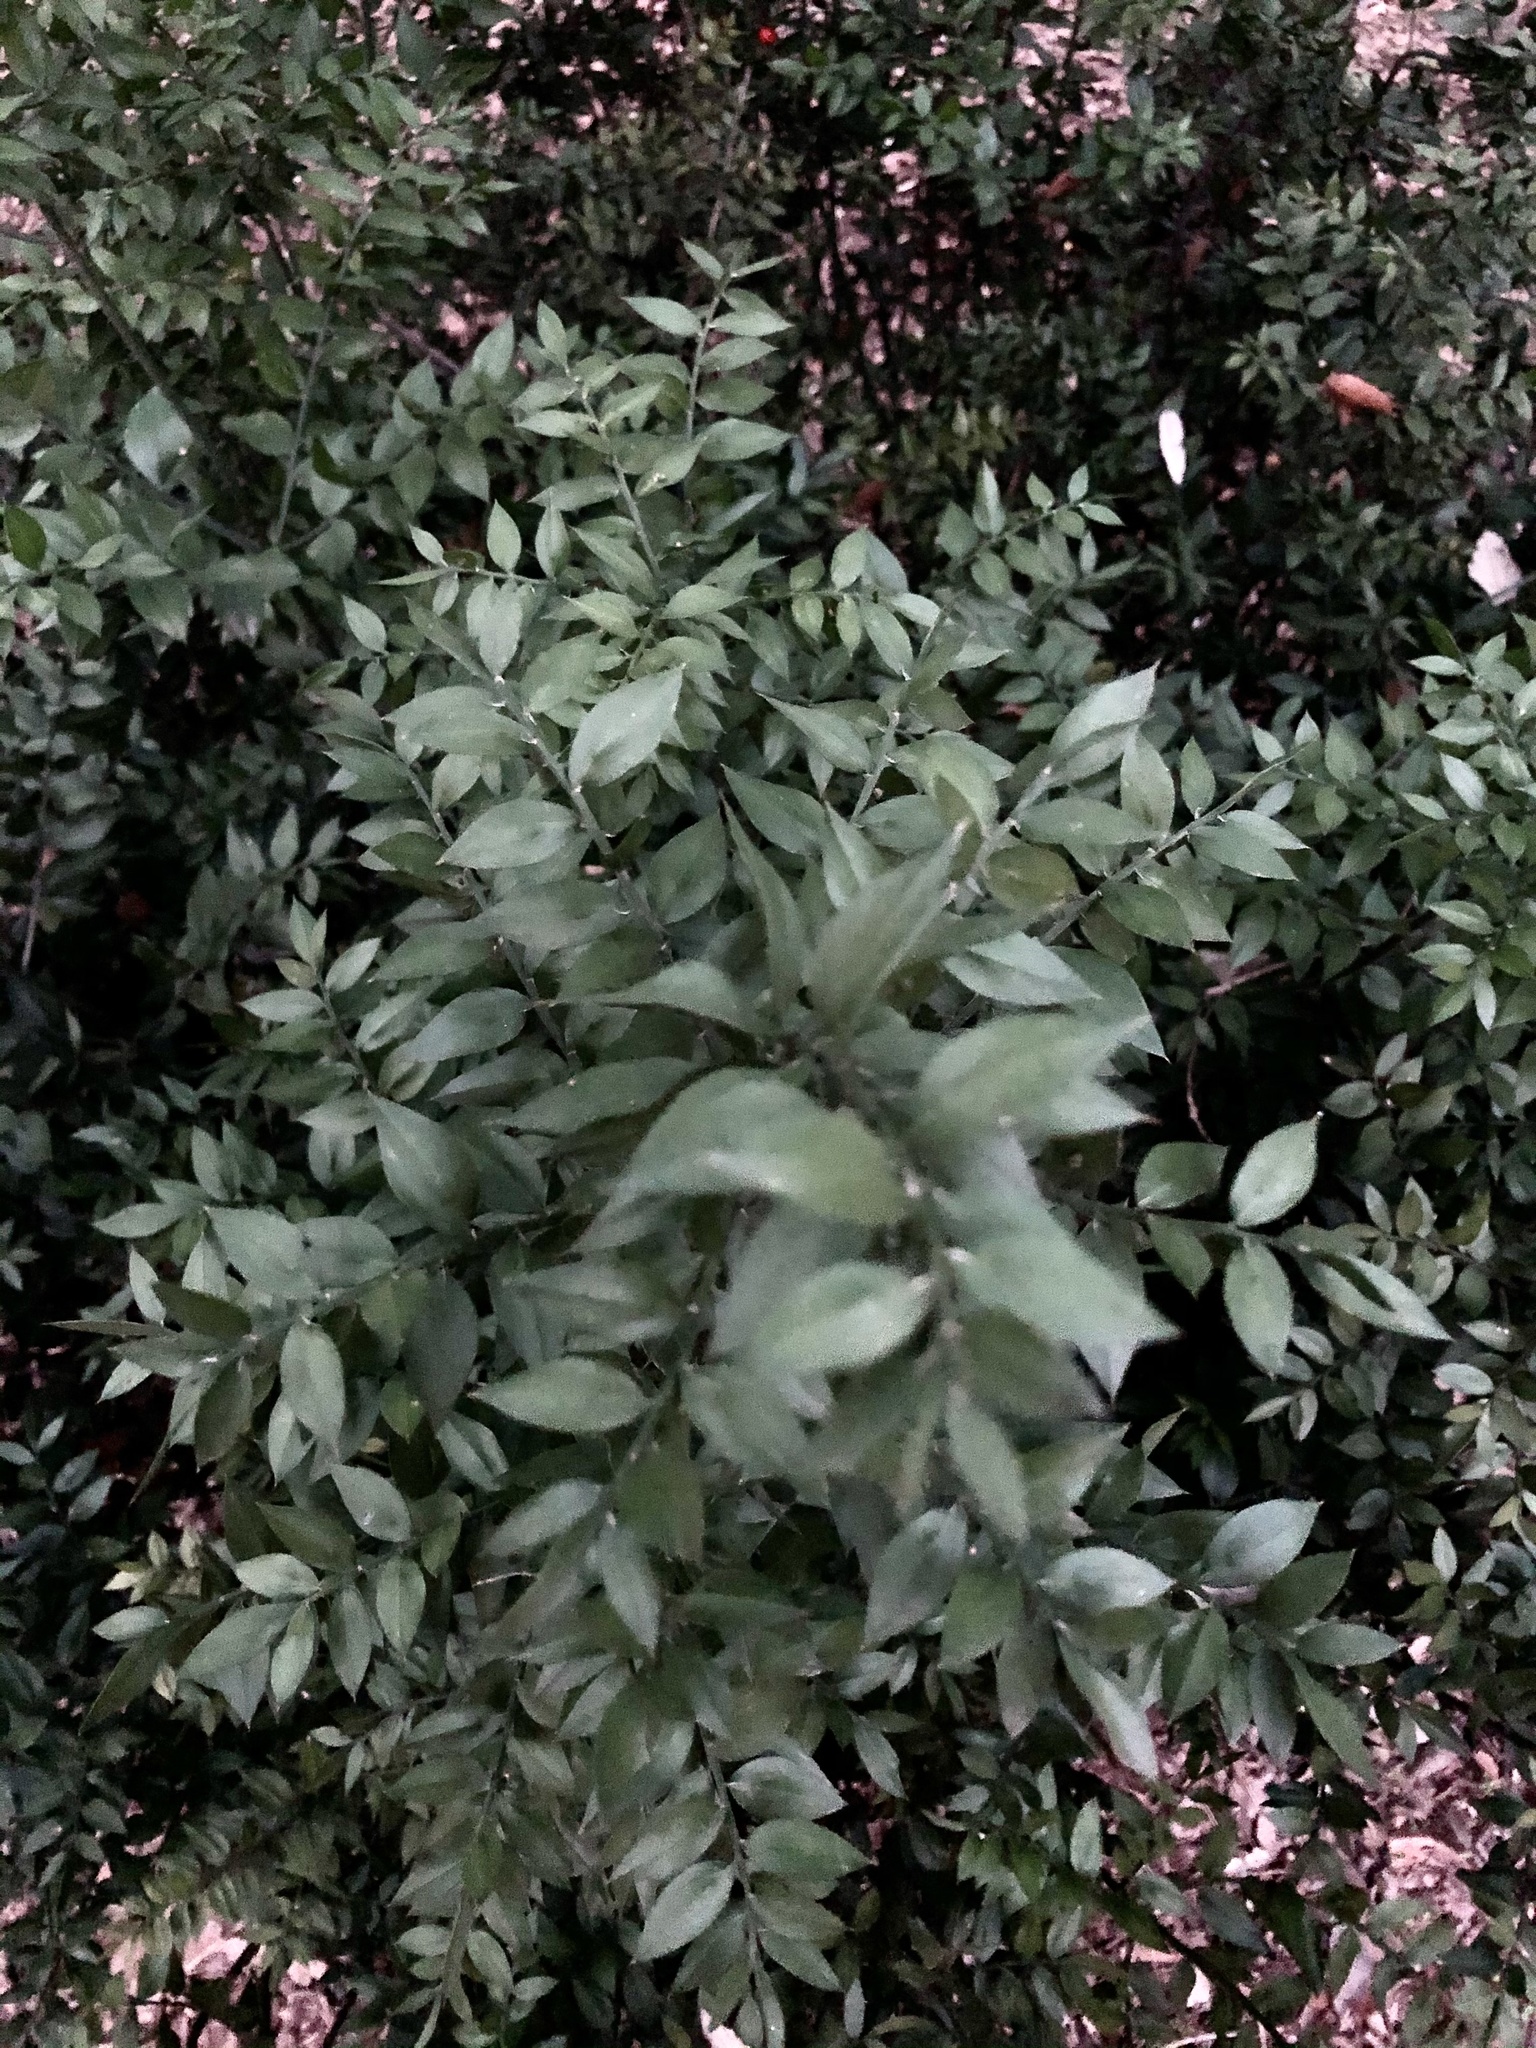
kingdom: Plantae
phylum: Tracheophyta
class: Liliopsida
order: Asparagales
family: Asparagaceae
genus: Ruscus
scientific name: Ruscus aculeatus
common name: Butcher's-broom
